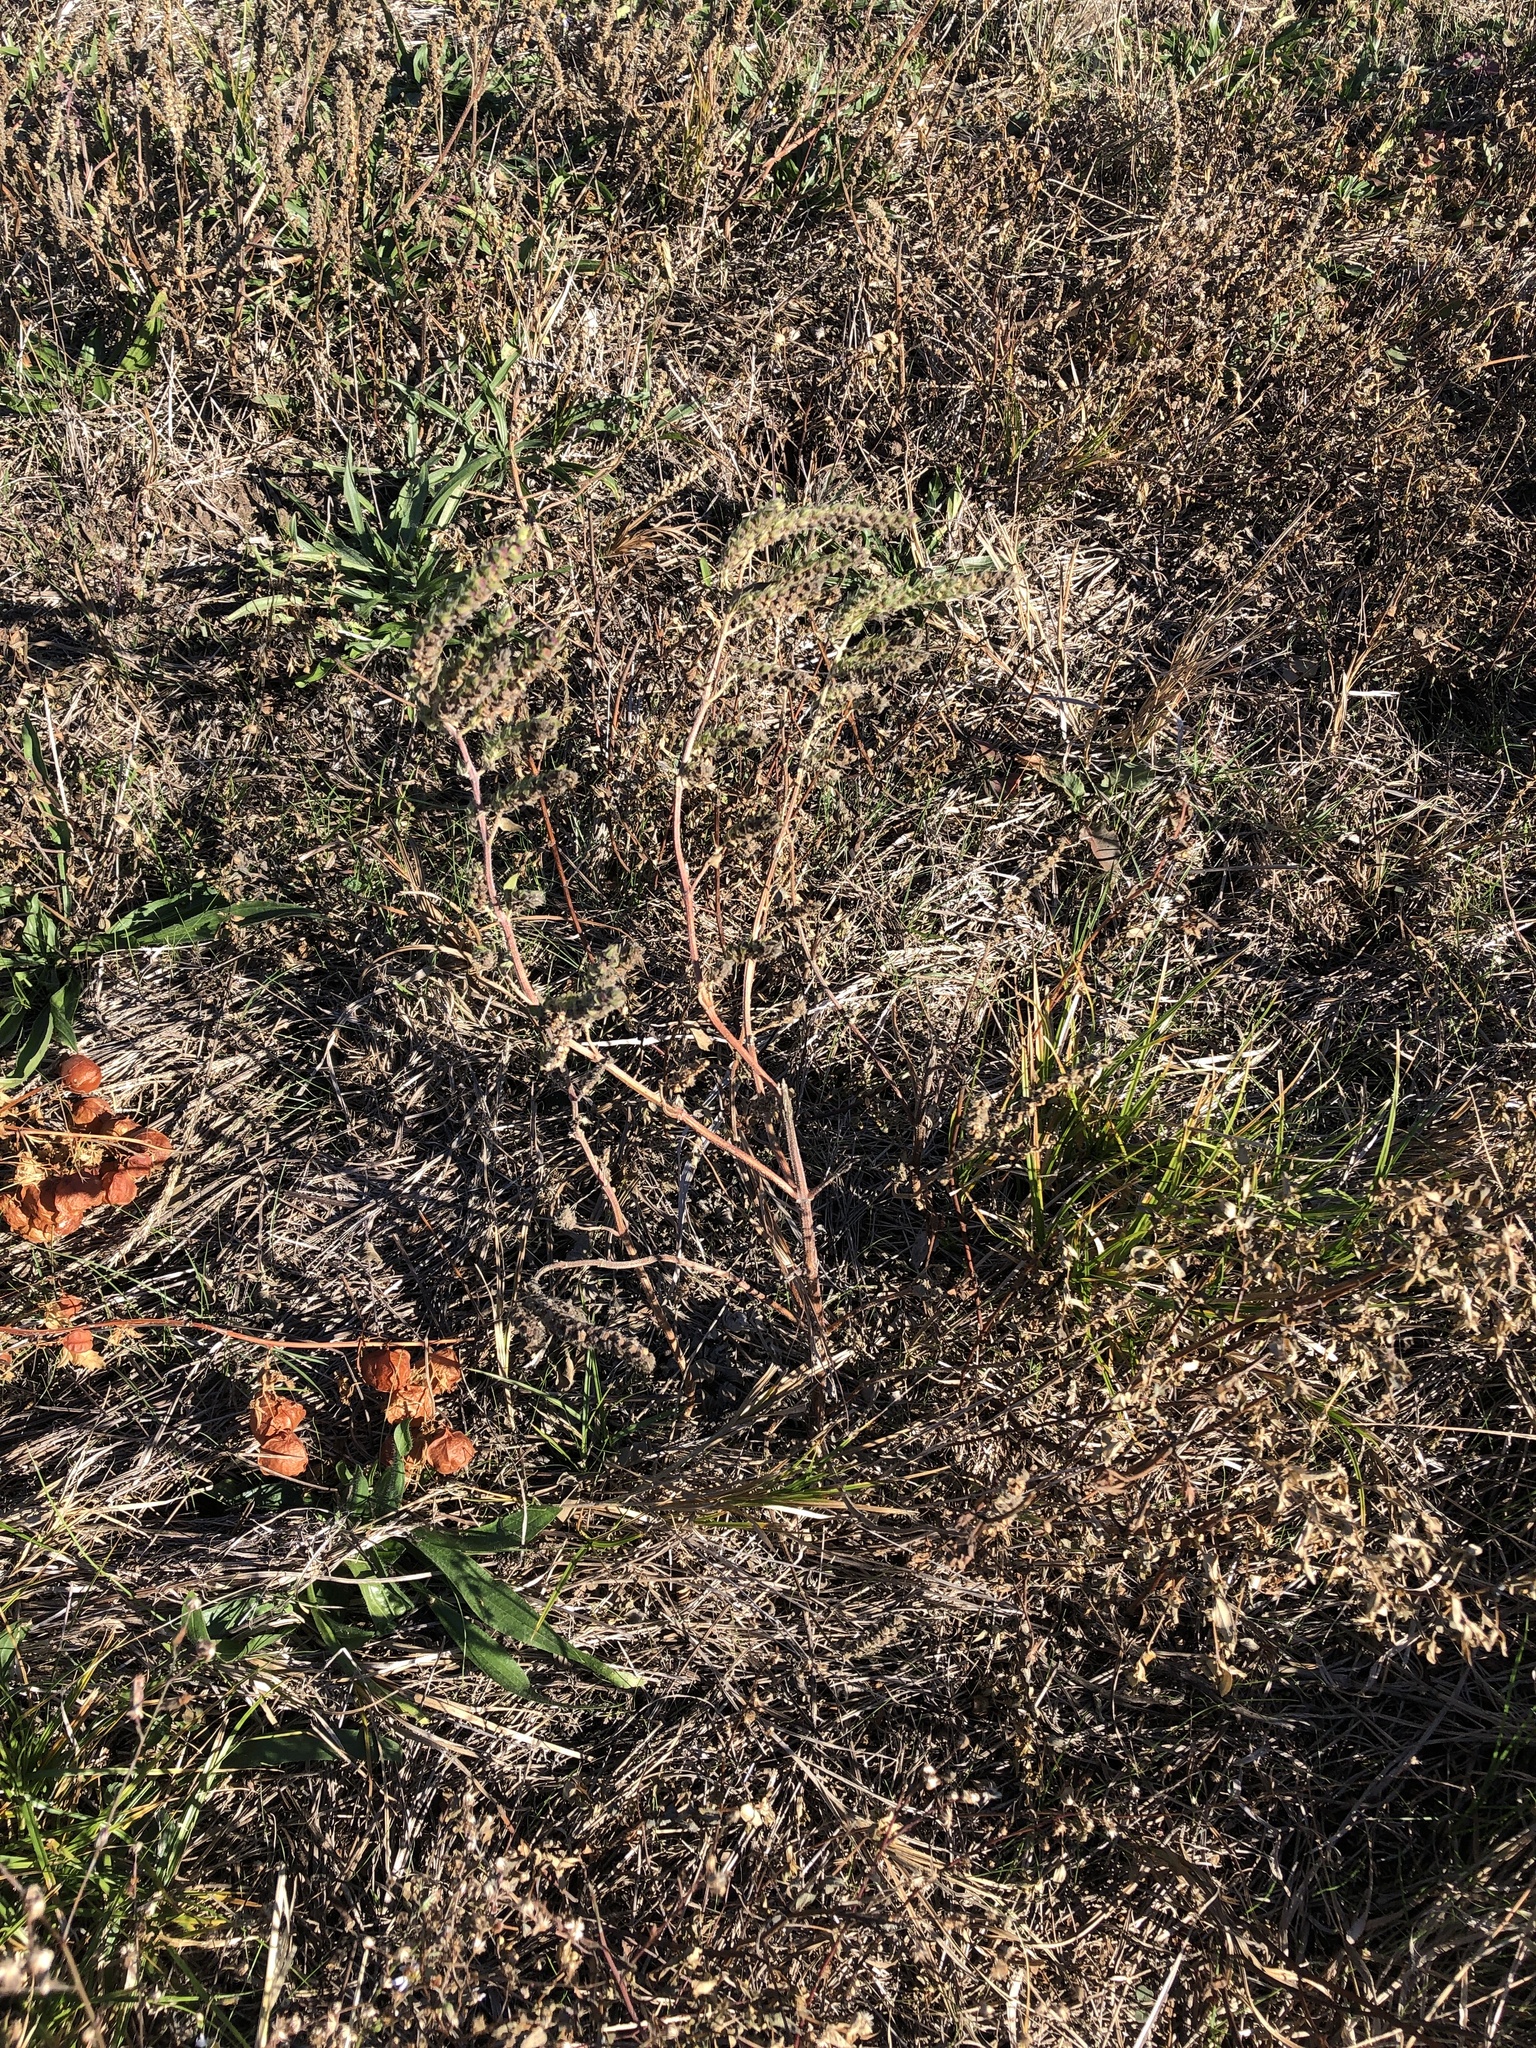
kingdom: Plantae
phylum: Tracheophyta
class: Magnoliopsida
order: Asterales
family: Asteraceae
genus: Iva
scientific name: Iva annua
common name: Marsh-elder
